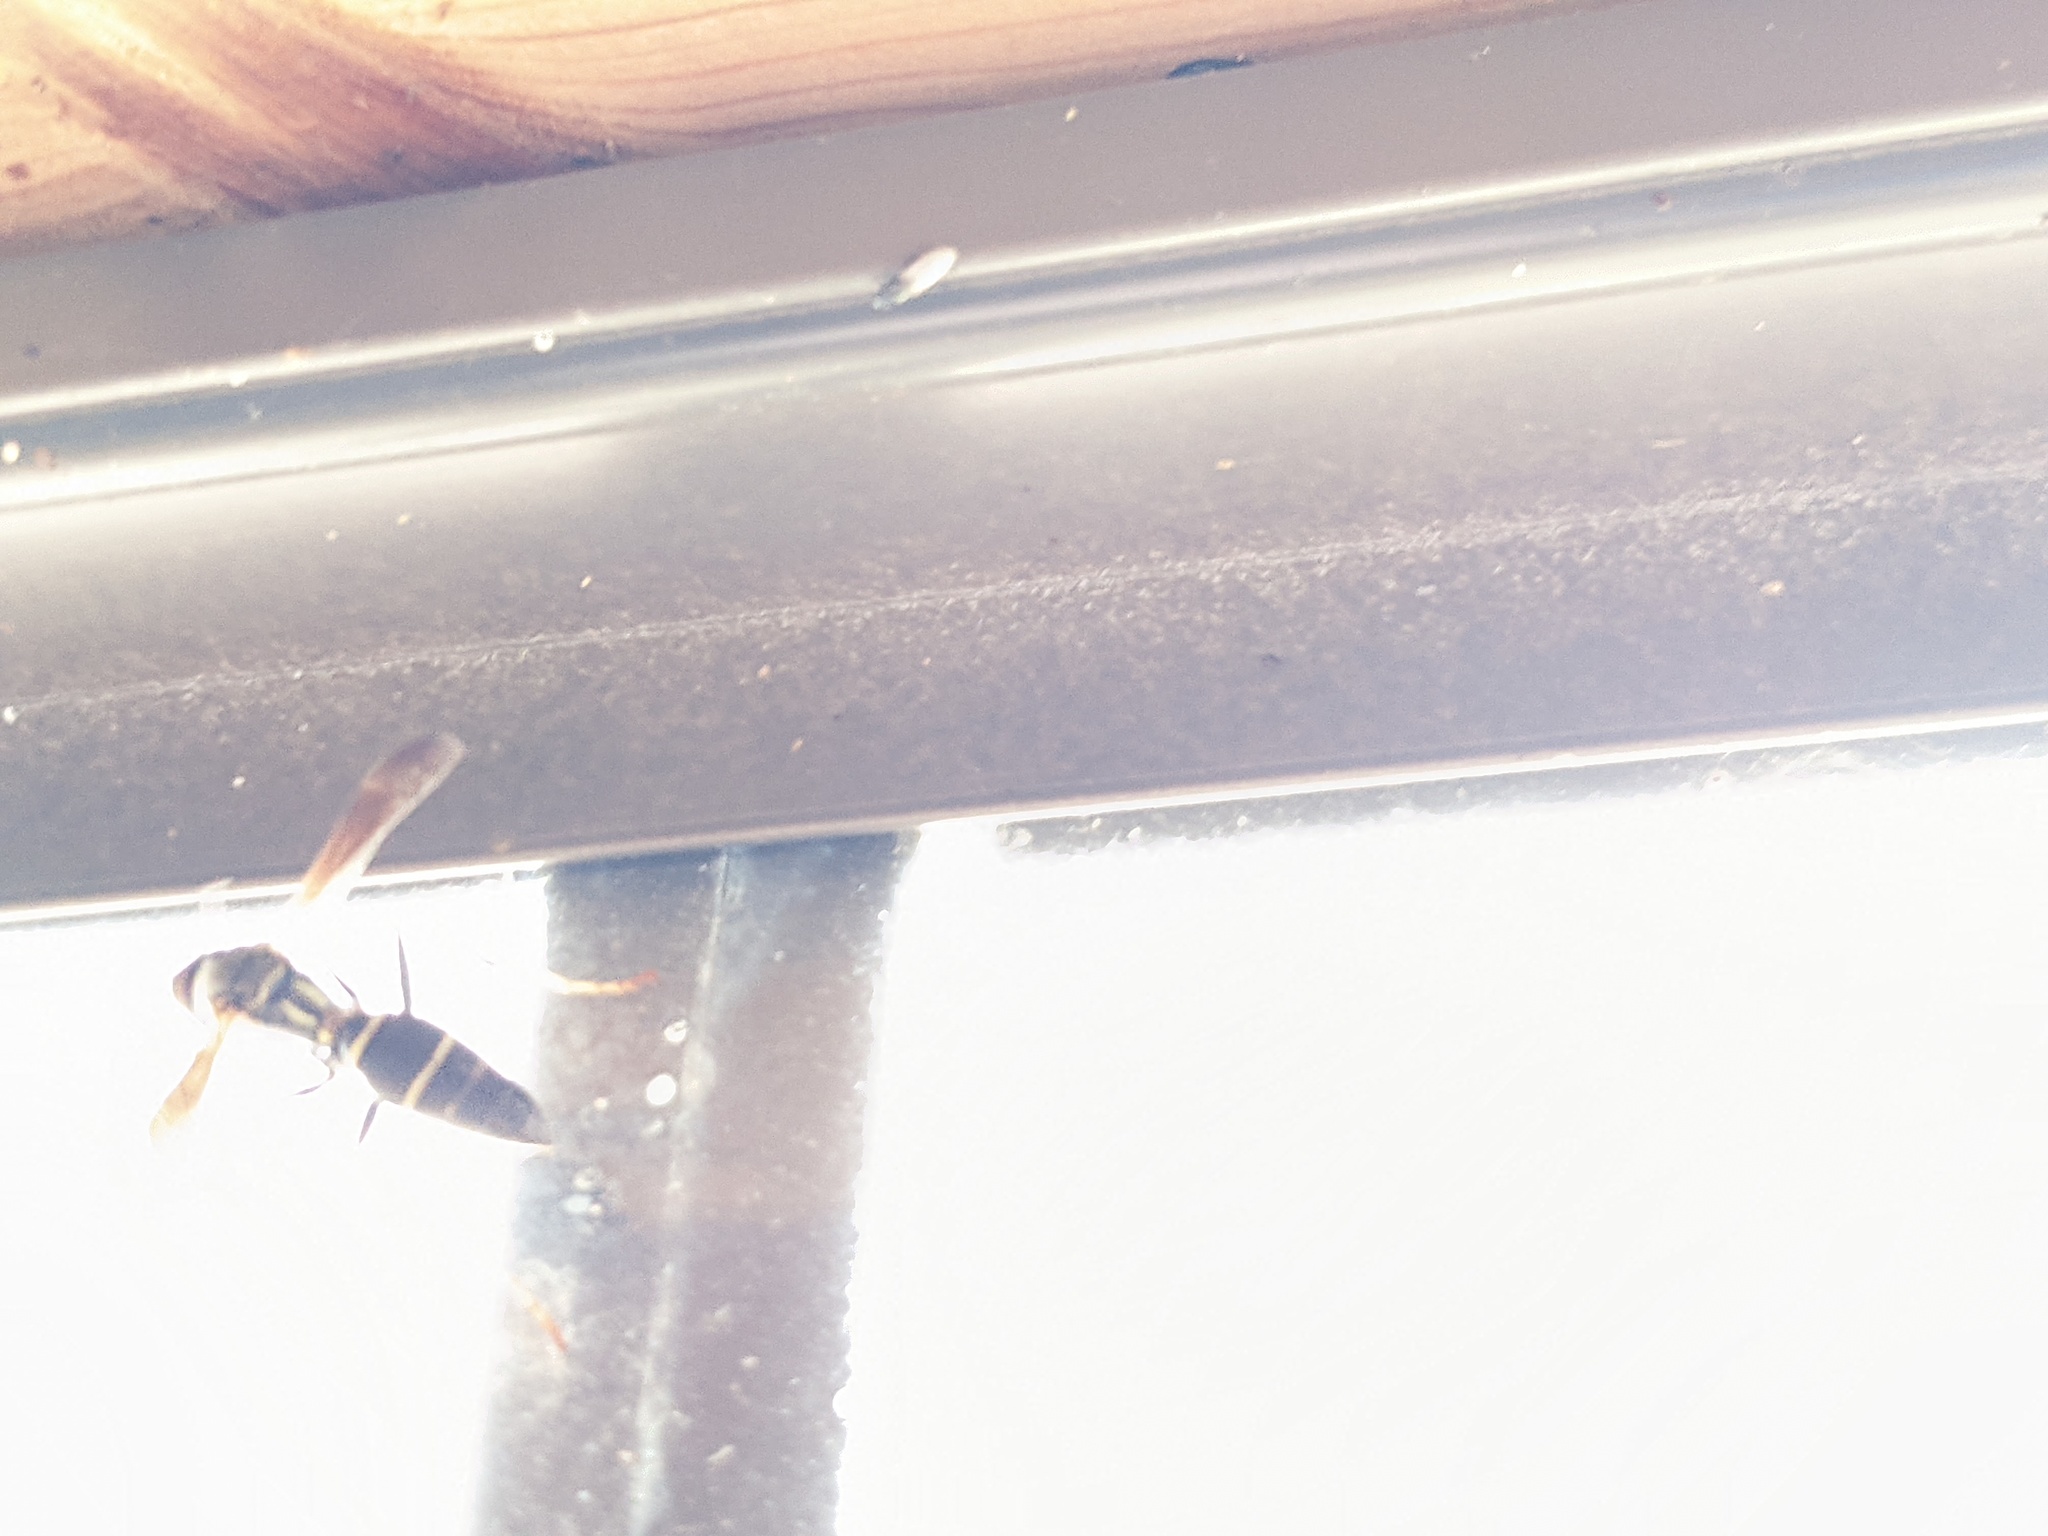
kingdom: Animalia
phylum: Arthropoda
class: Insecta
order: Hymenoptera
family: Eumenidae
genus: Polistes
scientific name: Polistes fuscatus
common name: Dark paper wasp
